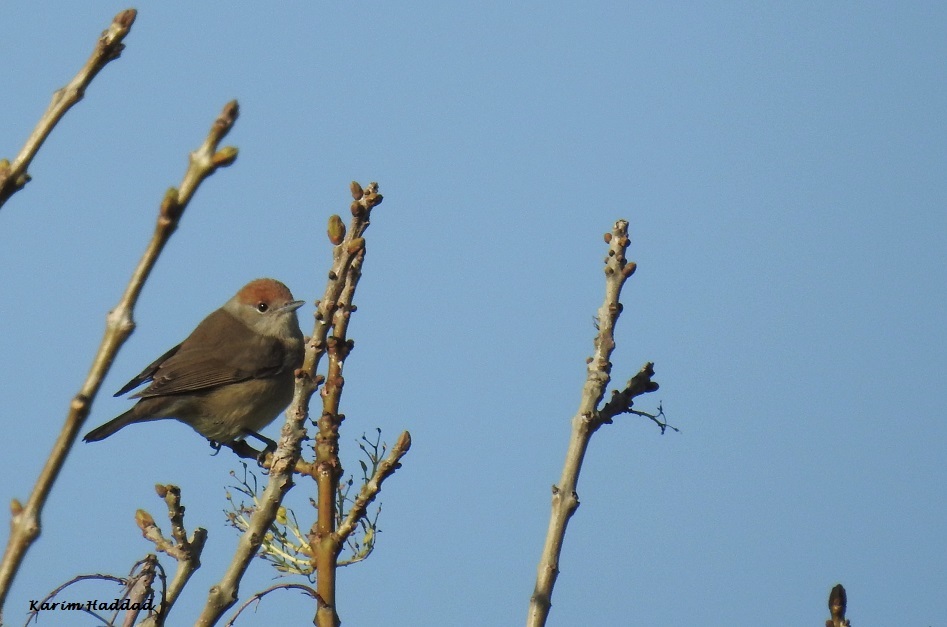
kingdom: Animalia
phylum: Chordata
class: Aves
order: Passeriformes
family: Sylviidae
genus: Sylvia
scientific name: Sylvia atricapilla
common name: Eurasian blackcap
